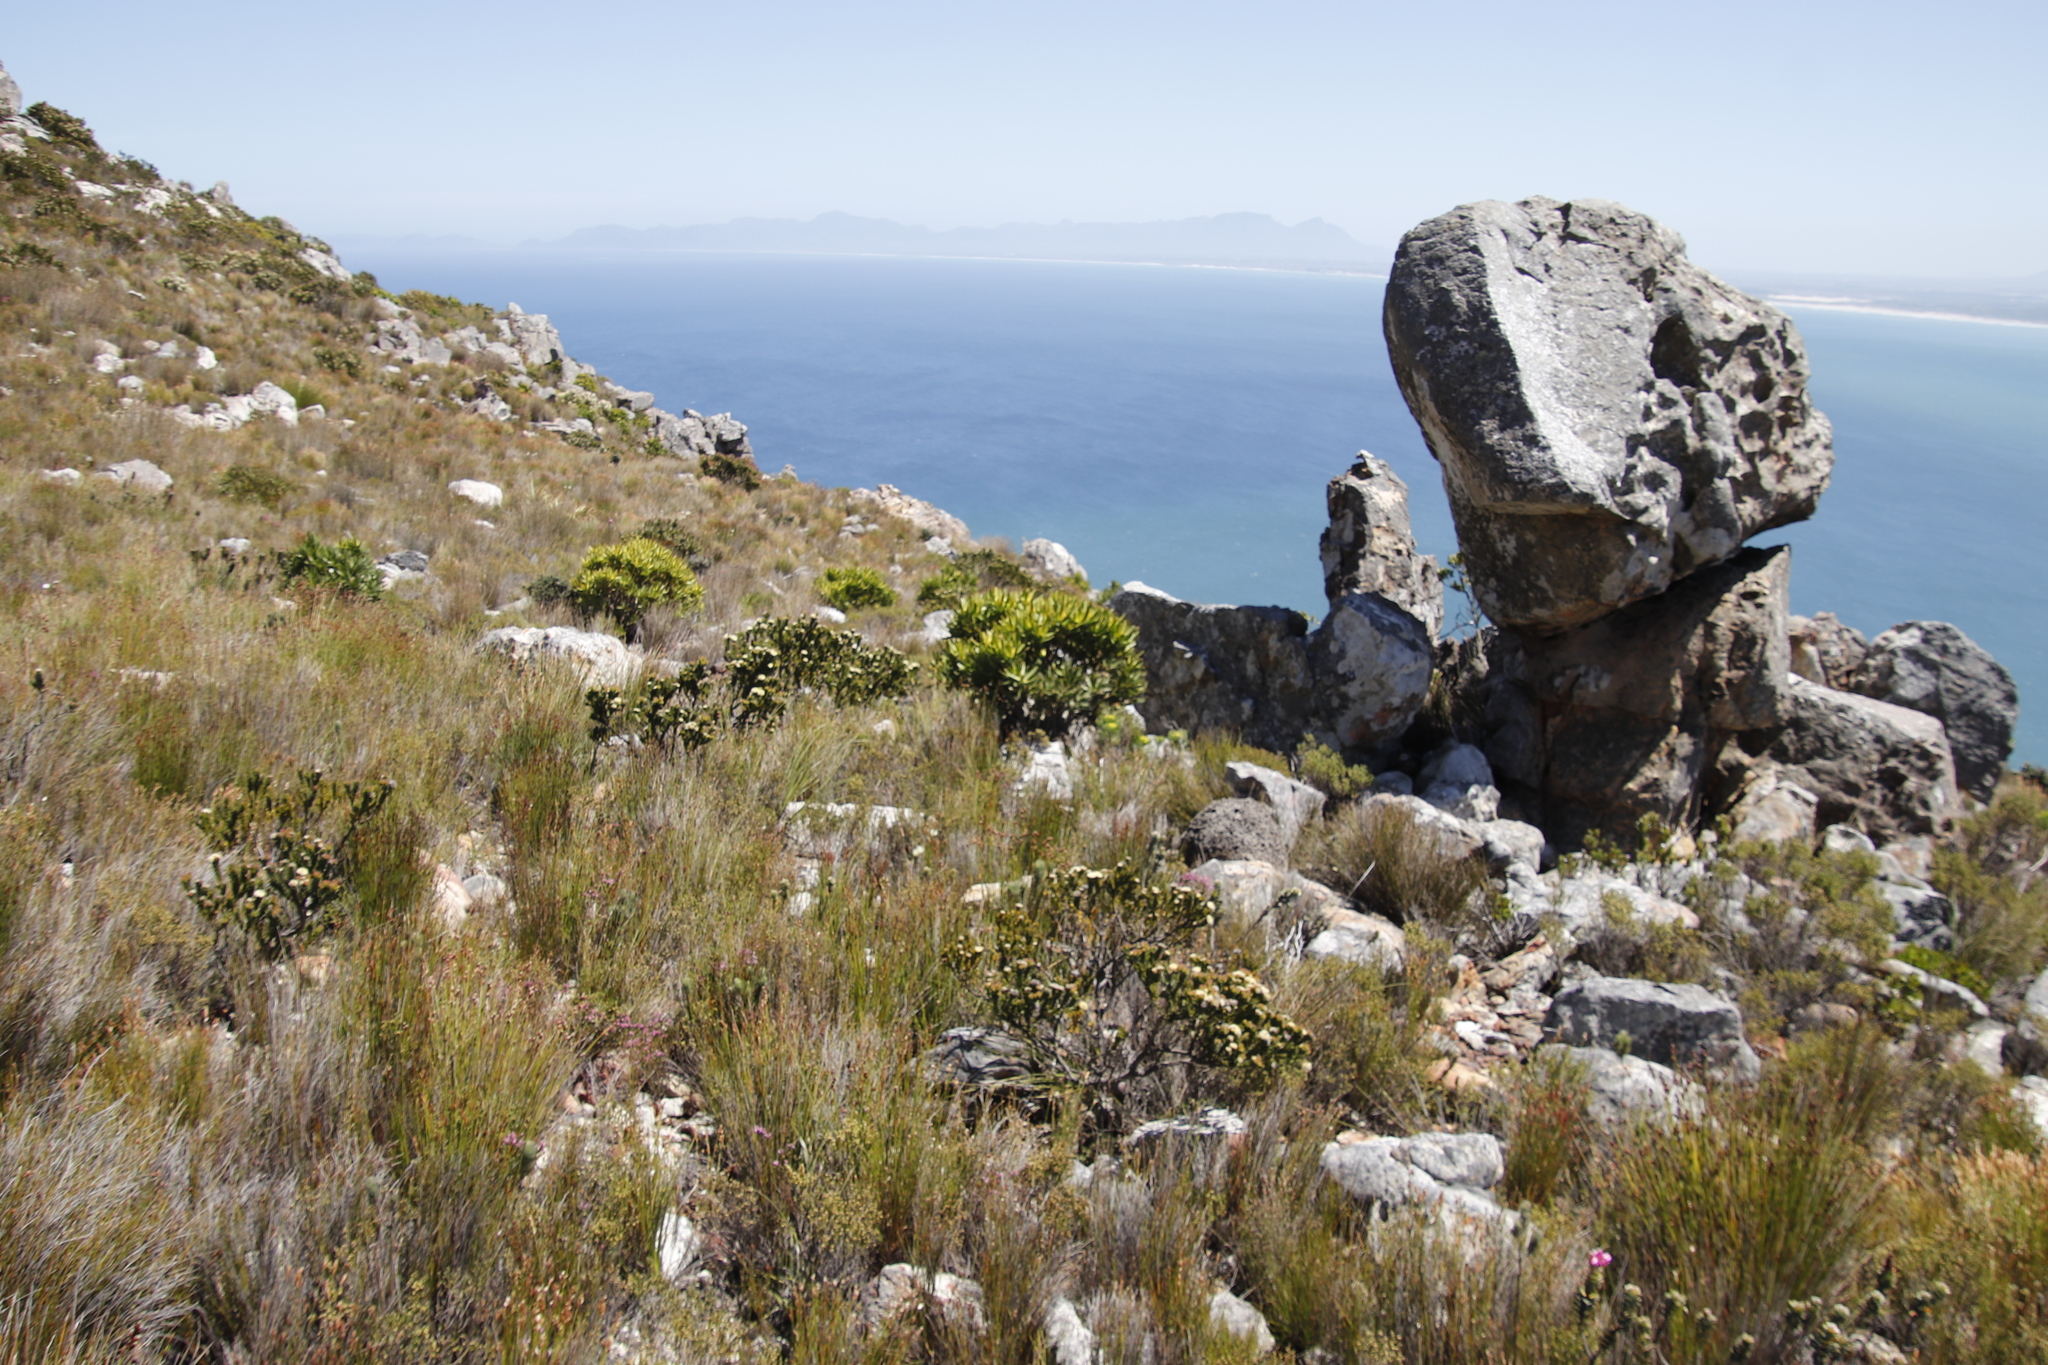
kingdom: Plantae
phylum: Tracheophyta
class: Magnoliopsida
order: Proteales
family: Proteaceae
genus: Leucadendron
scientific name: Leucadendron laureolum
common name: Golden sunshinebush
